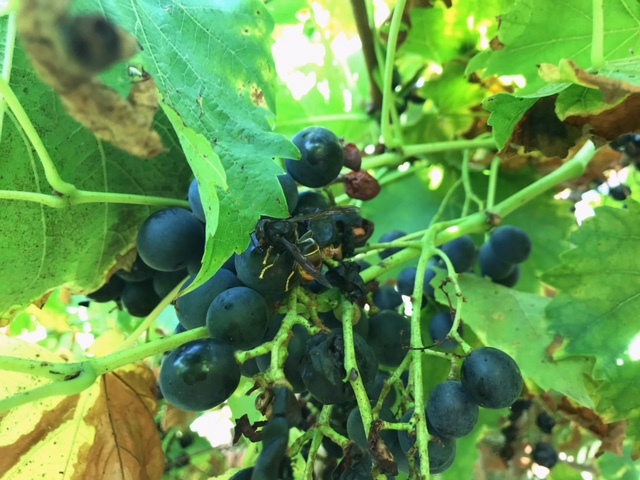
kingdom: Animalia
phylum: Arthropoda
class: Insecta
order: Hymenoptera
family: Vespidae
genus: Vespa
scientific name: Vespa velutina
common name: Asian hornet
